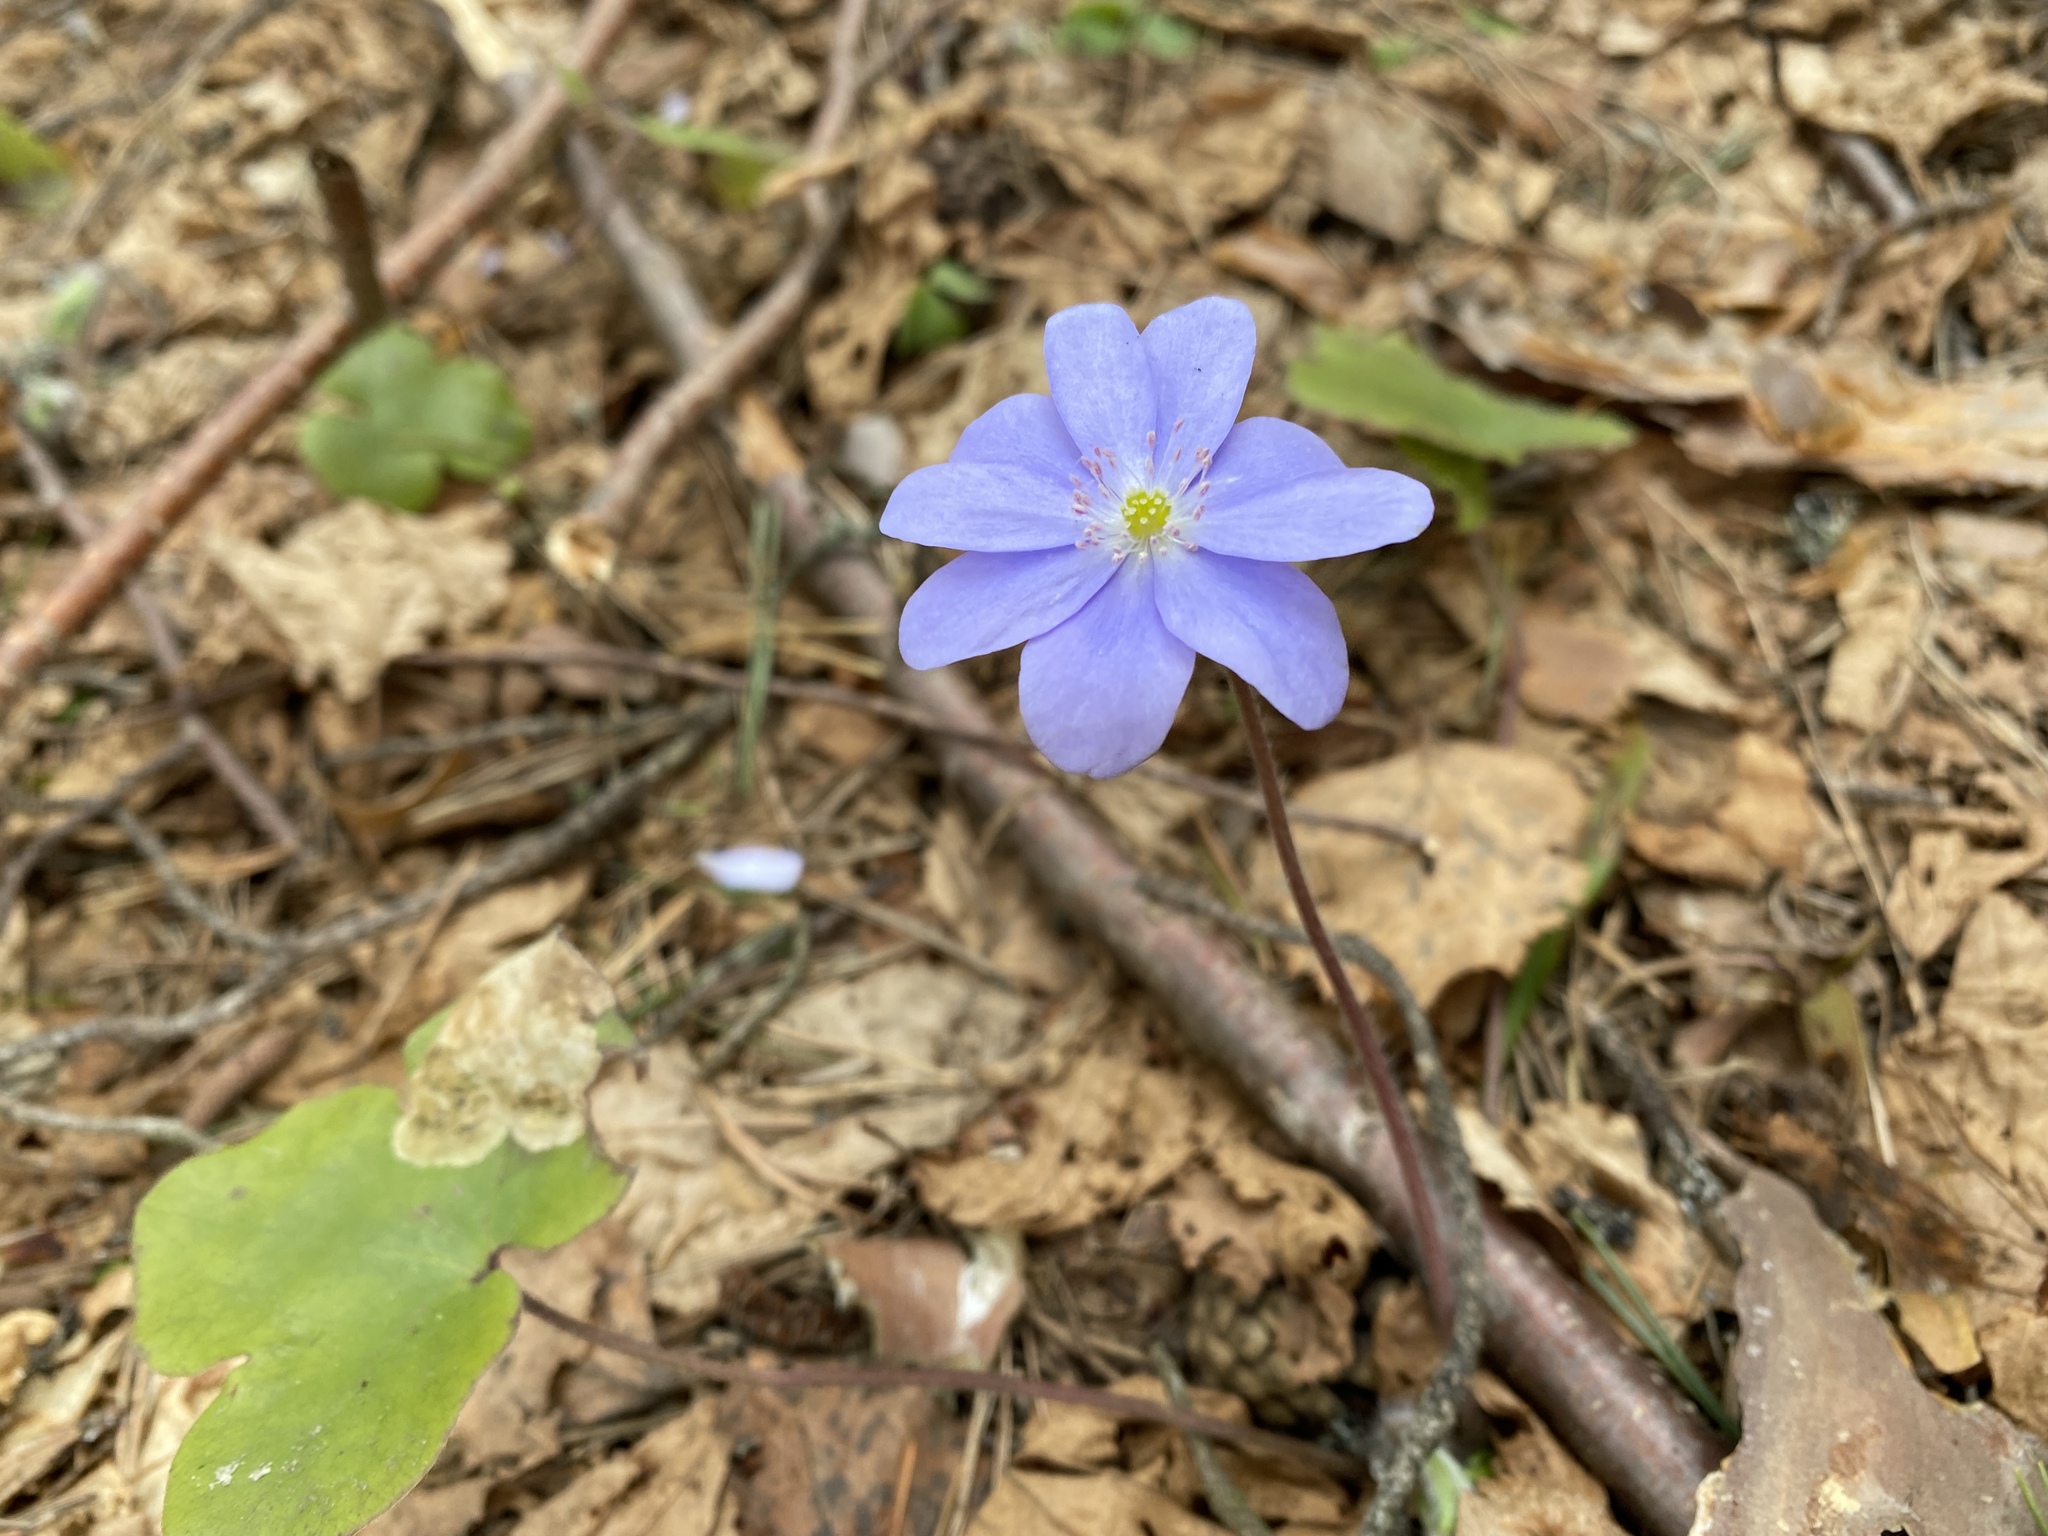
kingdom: Plantae
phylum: Tracheophyta
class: Magnoliopsida
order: Ranunculales
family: Ranunculaceae
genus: Hepatica
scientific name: Hepatica nobilis
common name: Liverleaf
